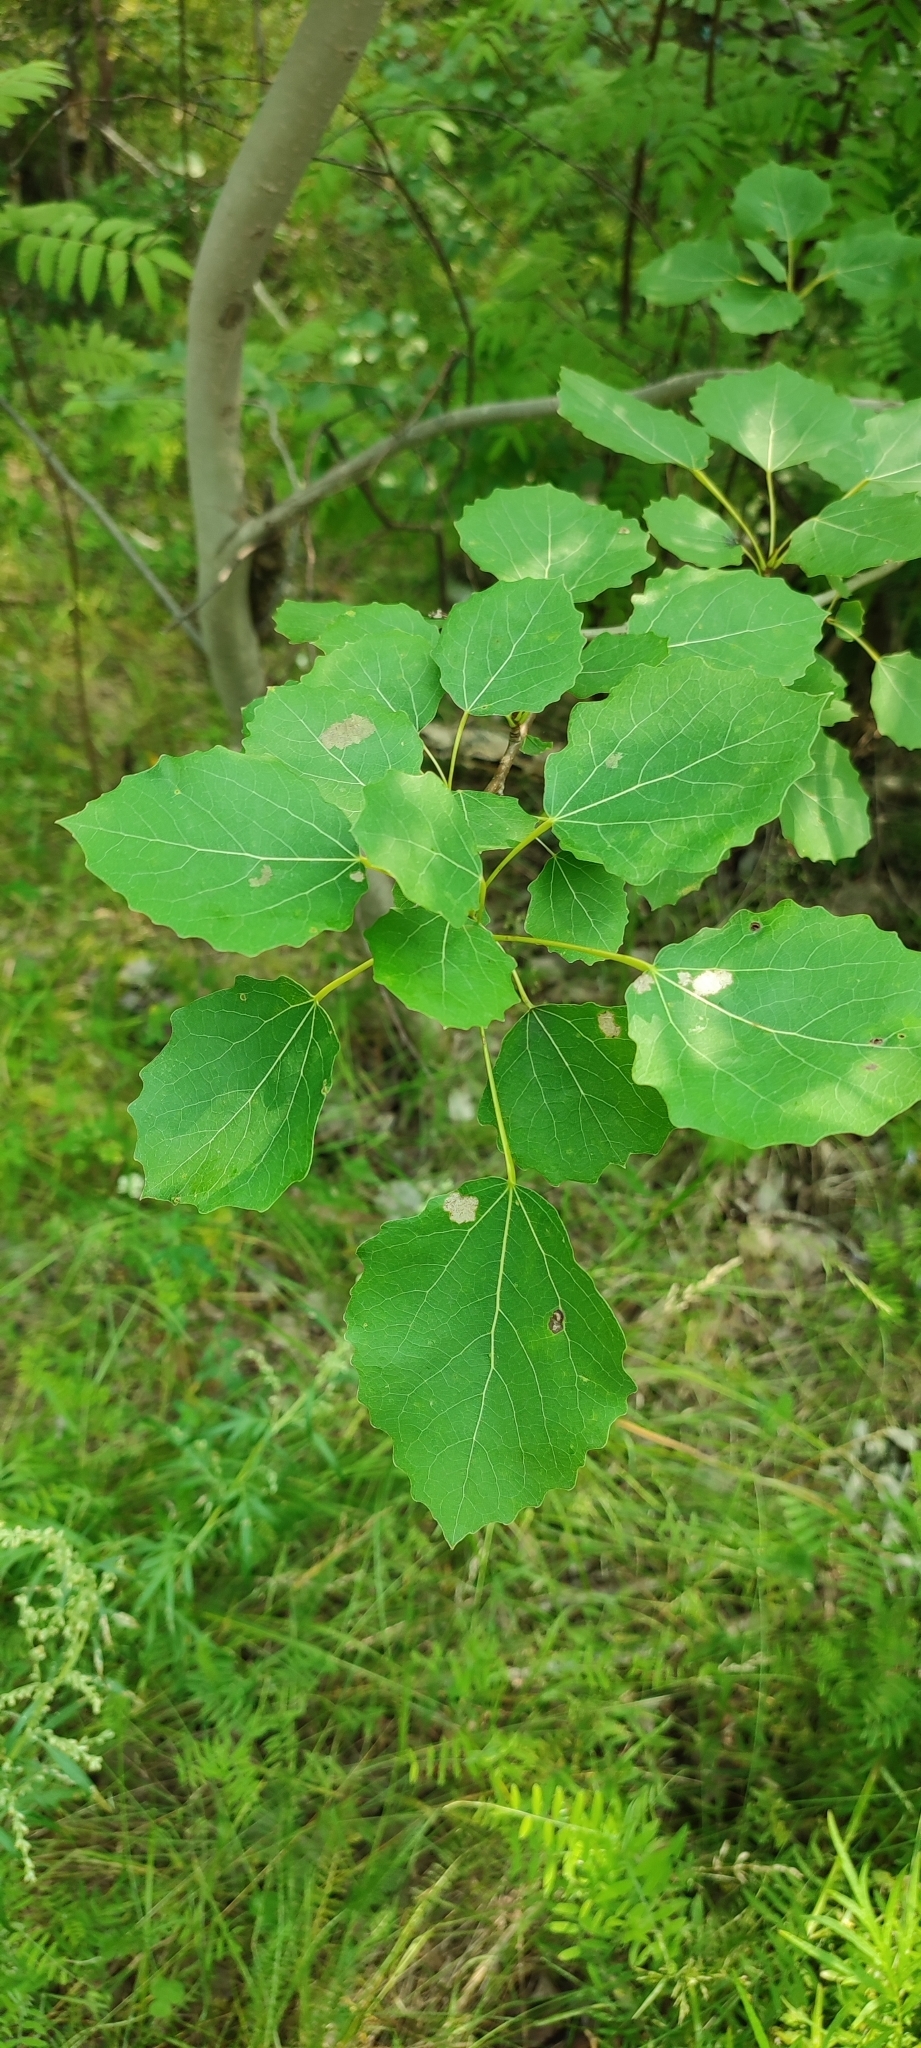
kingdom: Plantae
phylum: Tracheophyta
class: Magnoliopsida
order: Malpighiales
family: Salicaceae
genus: Populus
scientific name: Populus tremula
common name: European aspen
